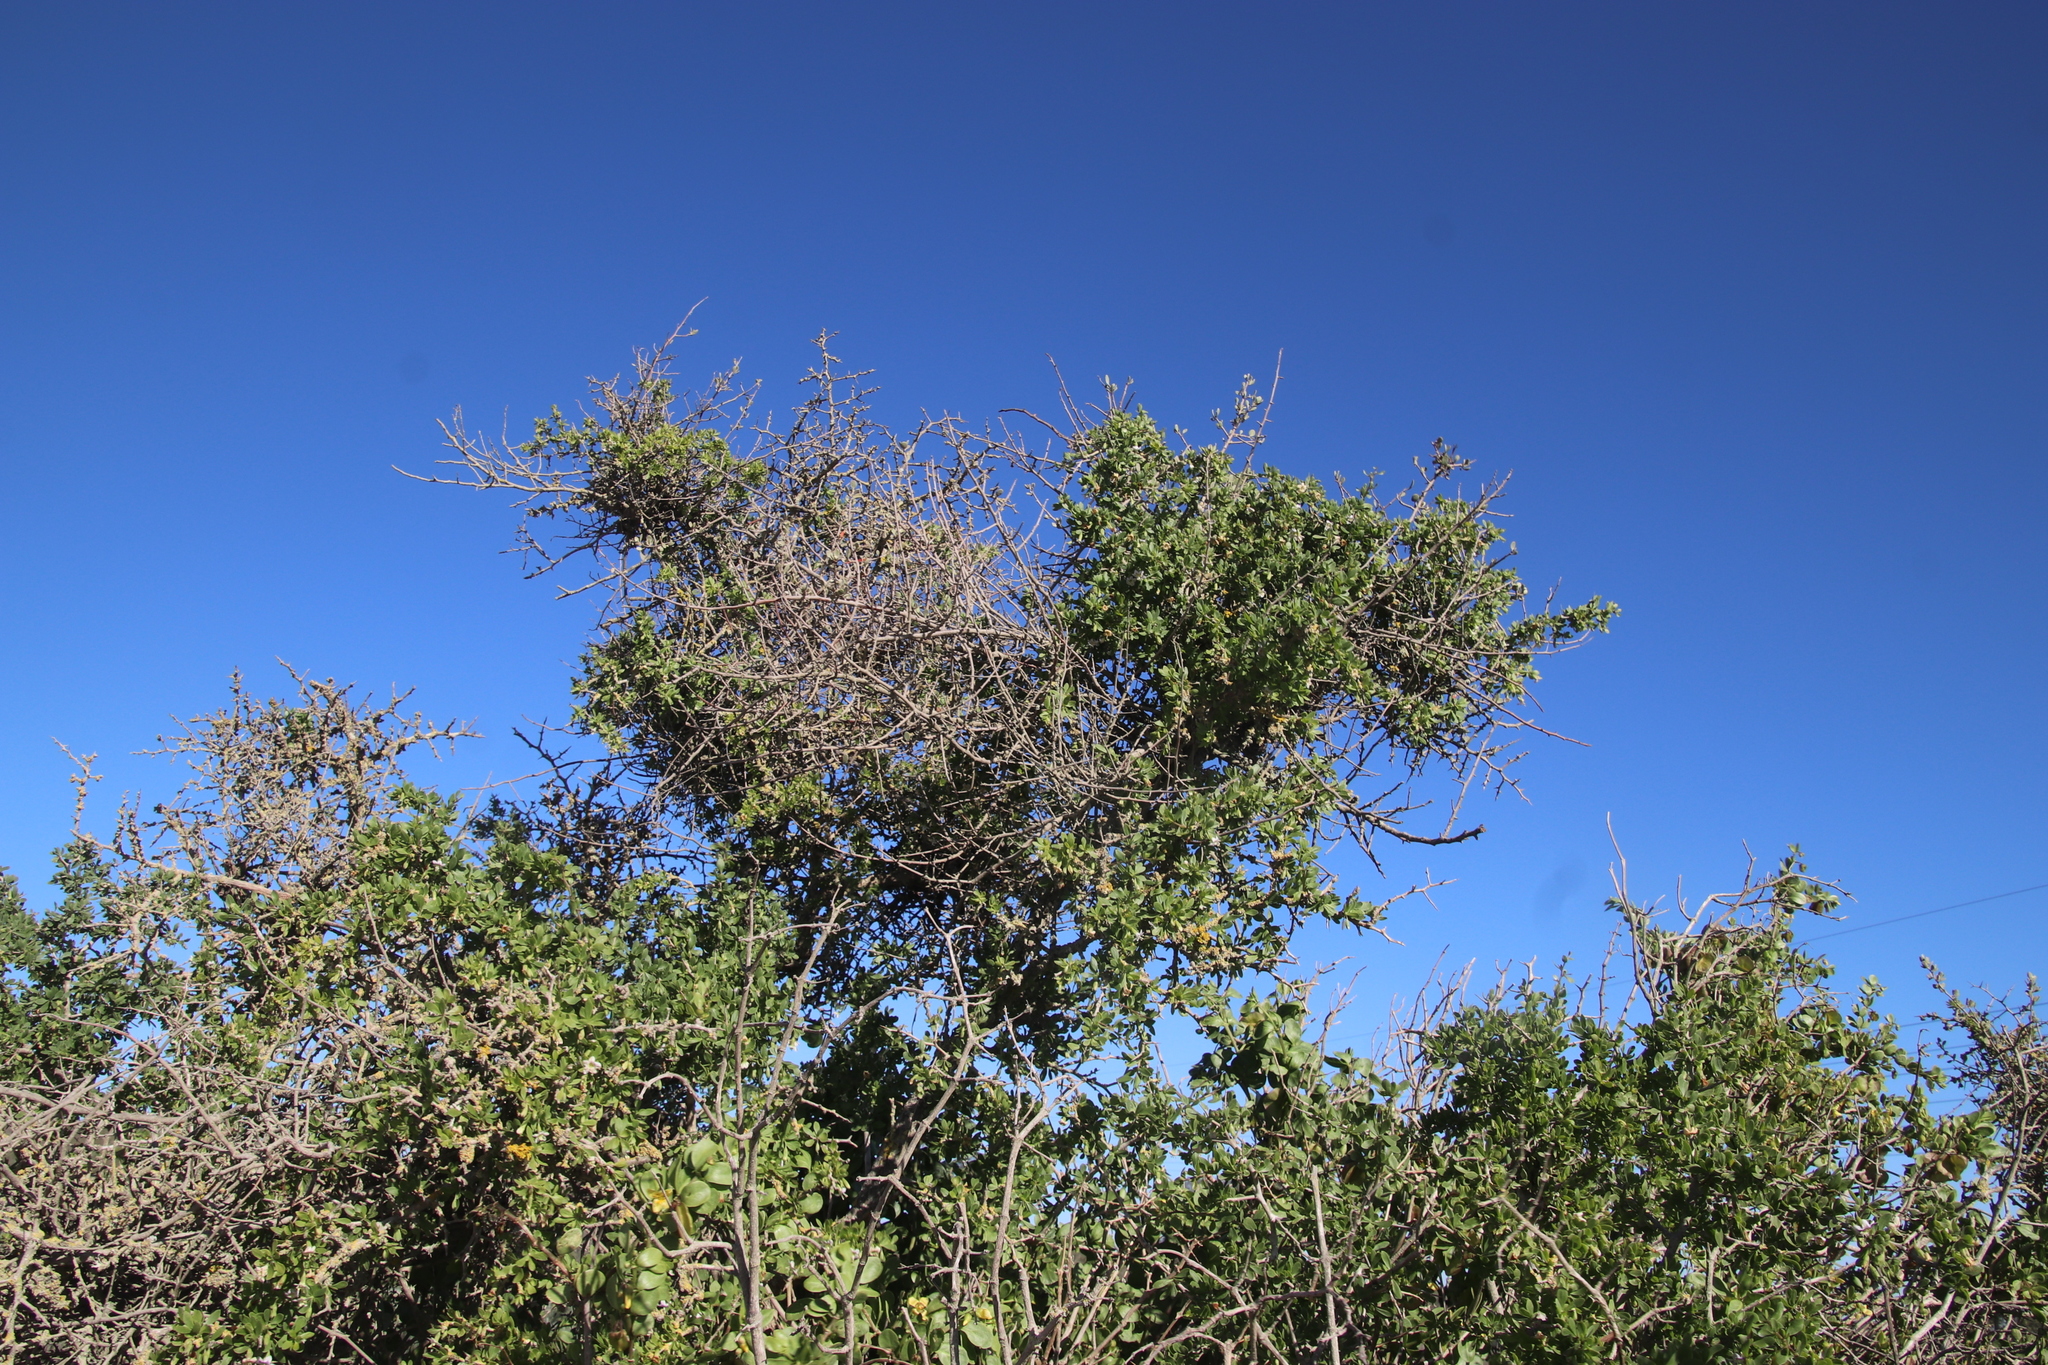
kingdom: Plantae
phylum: Tracheophyta
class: Magnoliopsida
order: Santalales
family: Loranthaceae
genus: Septulina
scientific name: Septulina glauca
